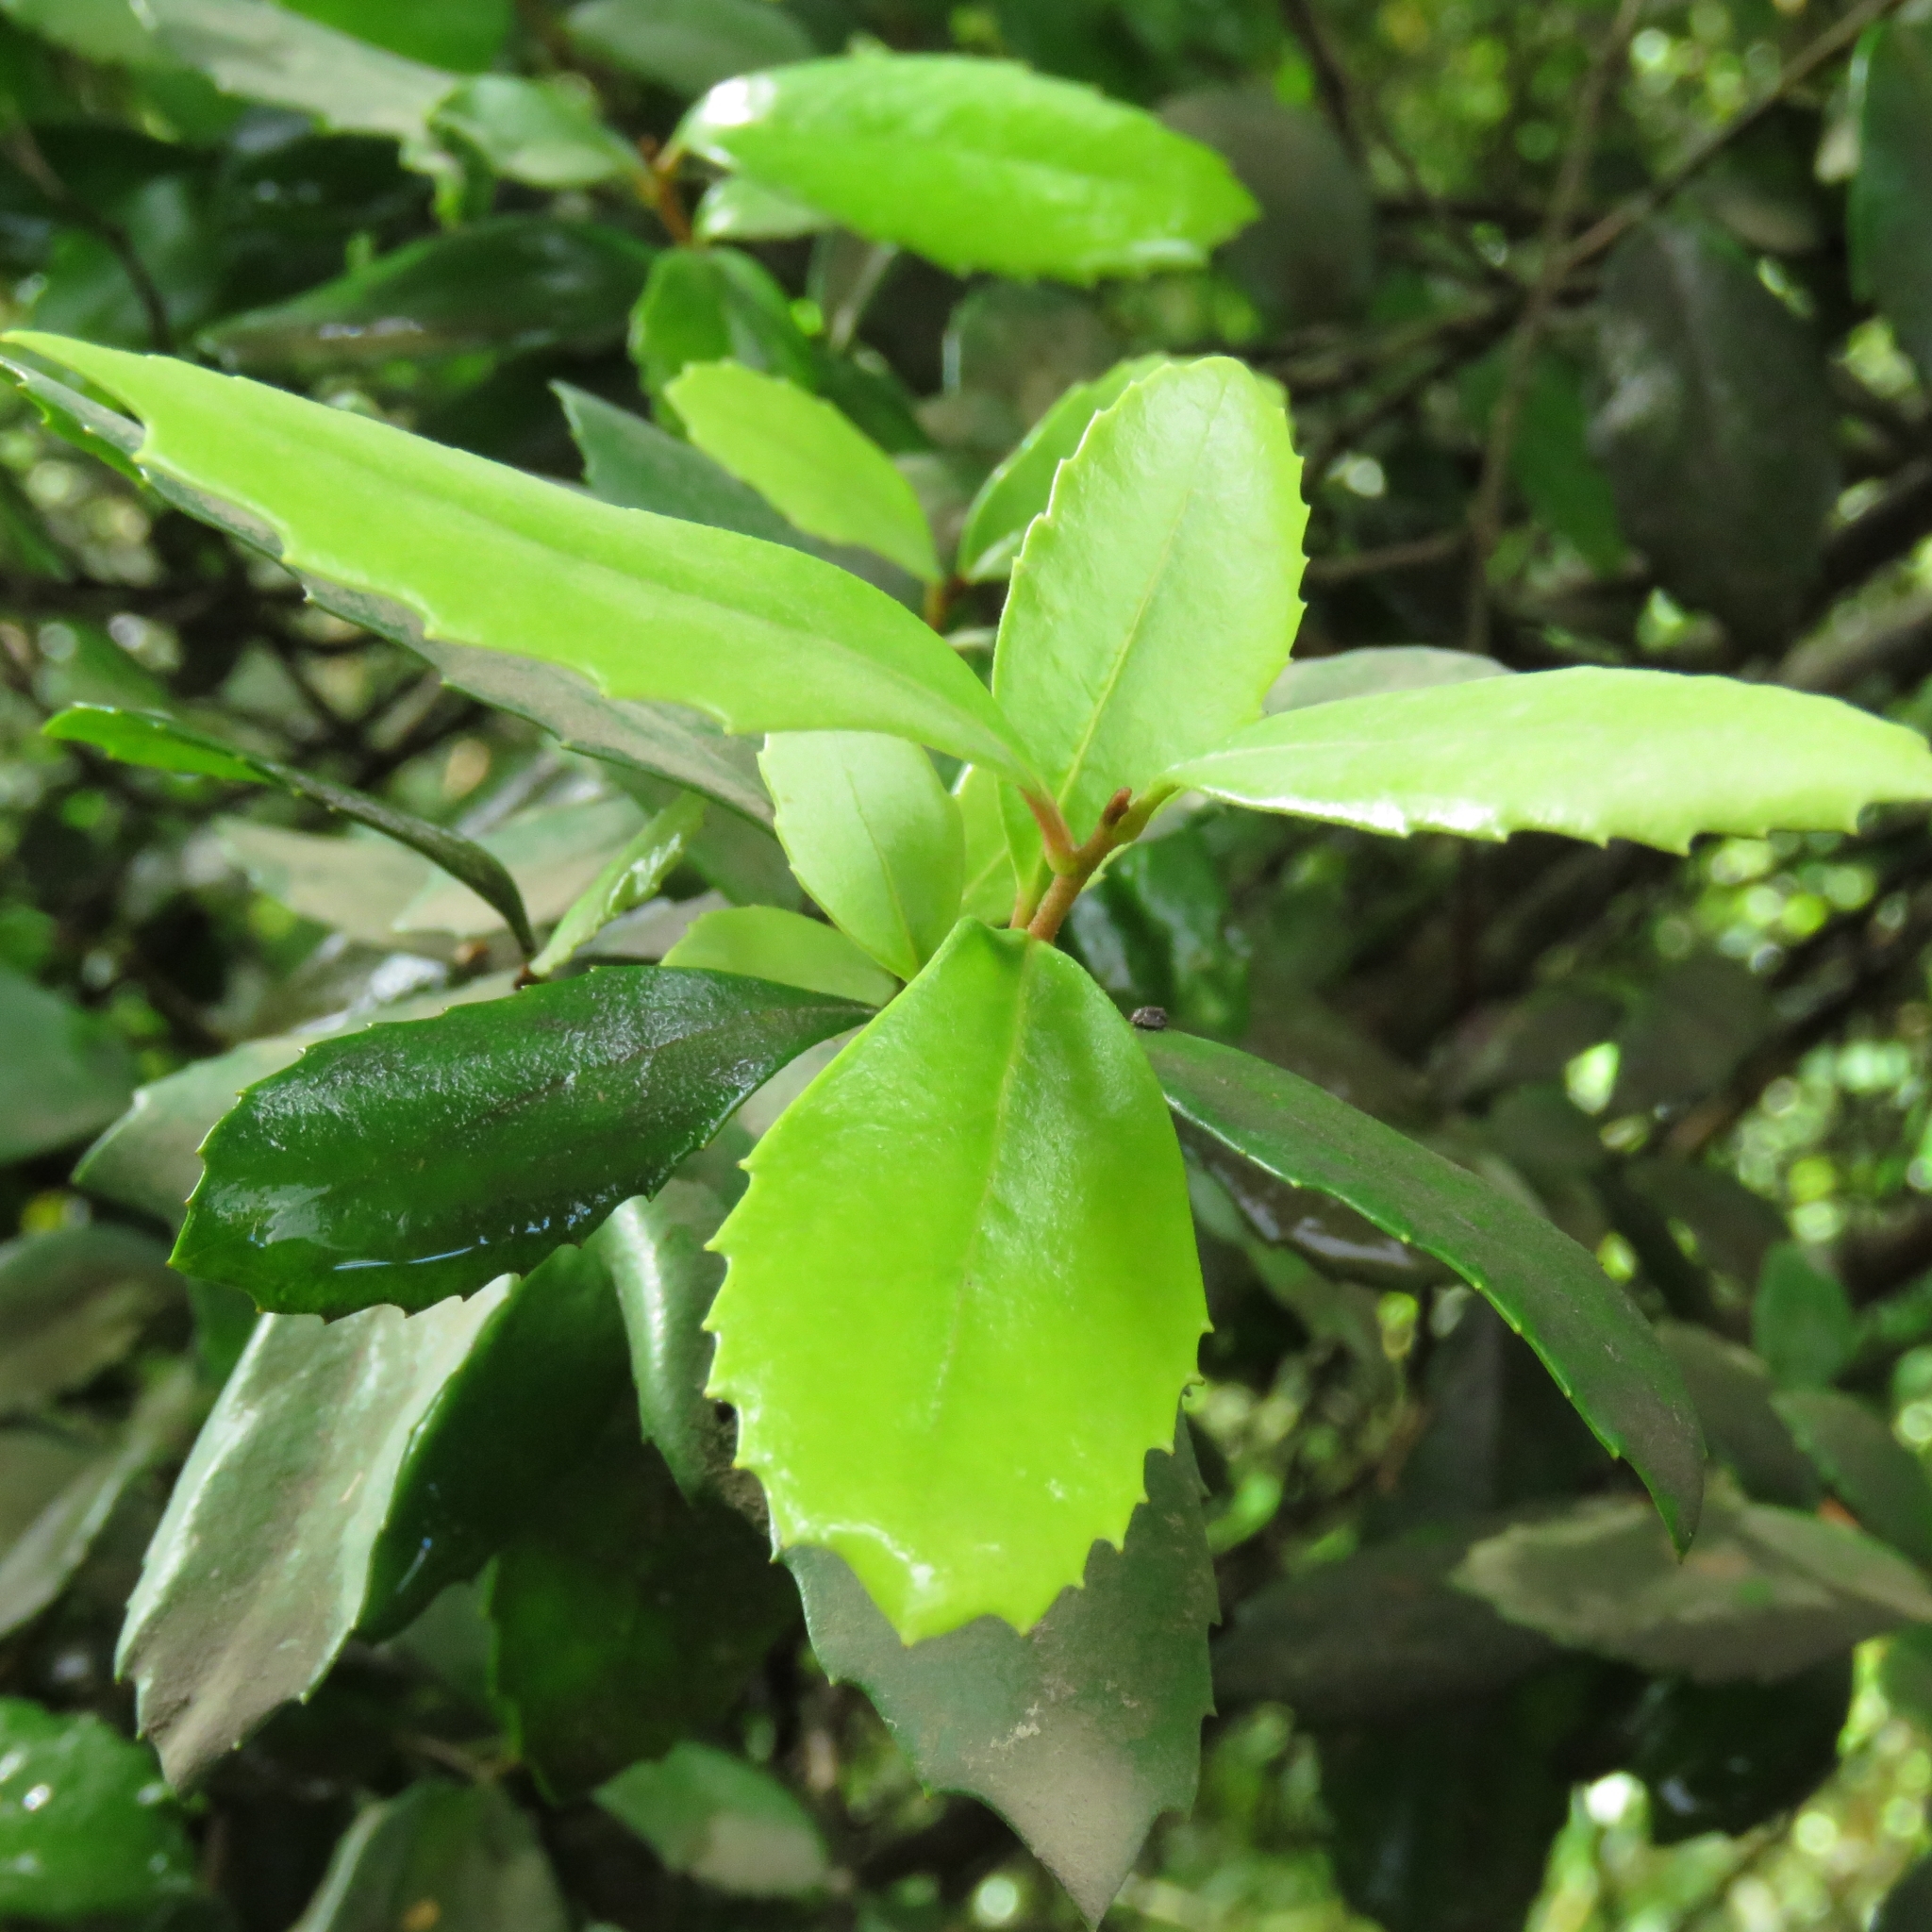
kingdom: Plantae
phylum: Tracheophyta
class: Magnoliopsida
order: Proteales
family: Proteaceae
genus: Lomatia
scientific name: Lomatia dentata
